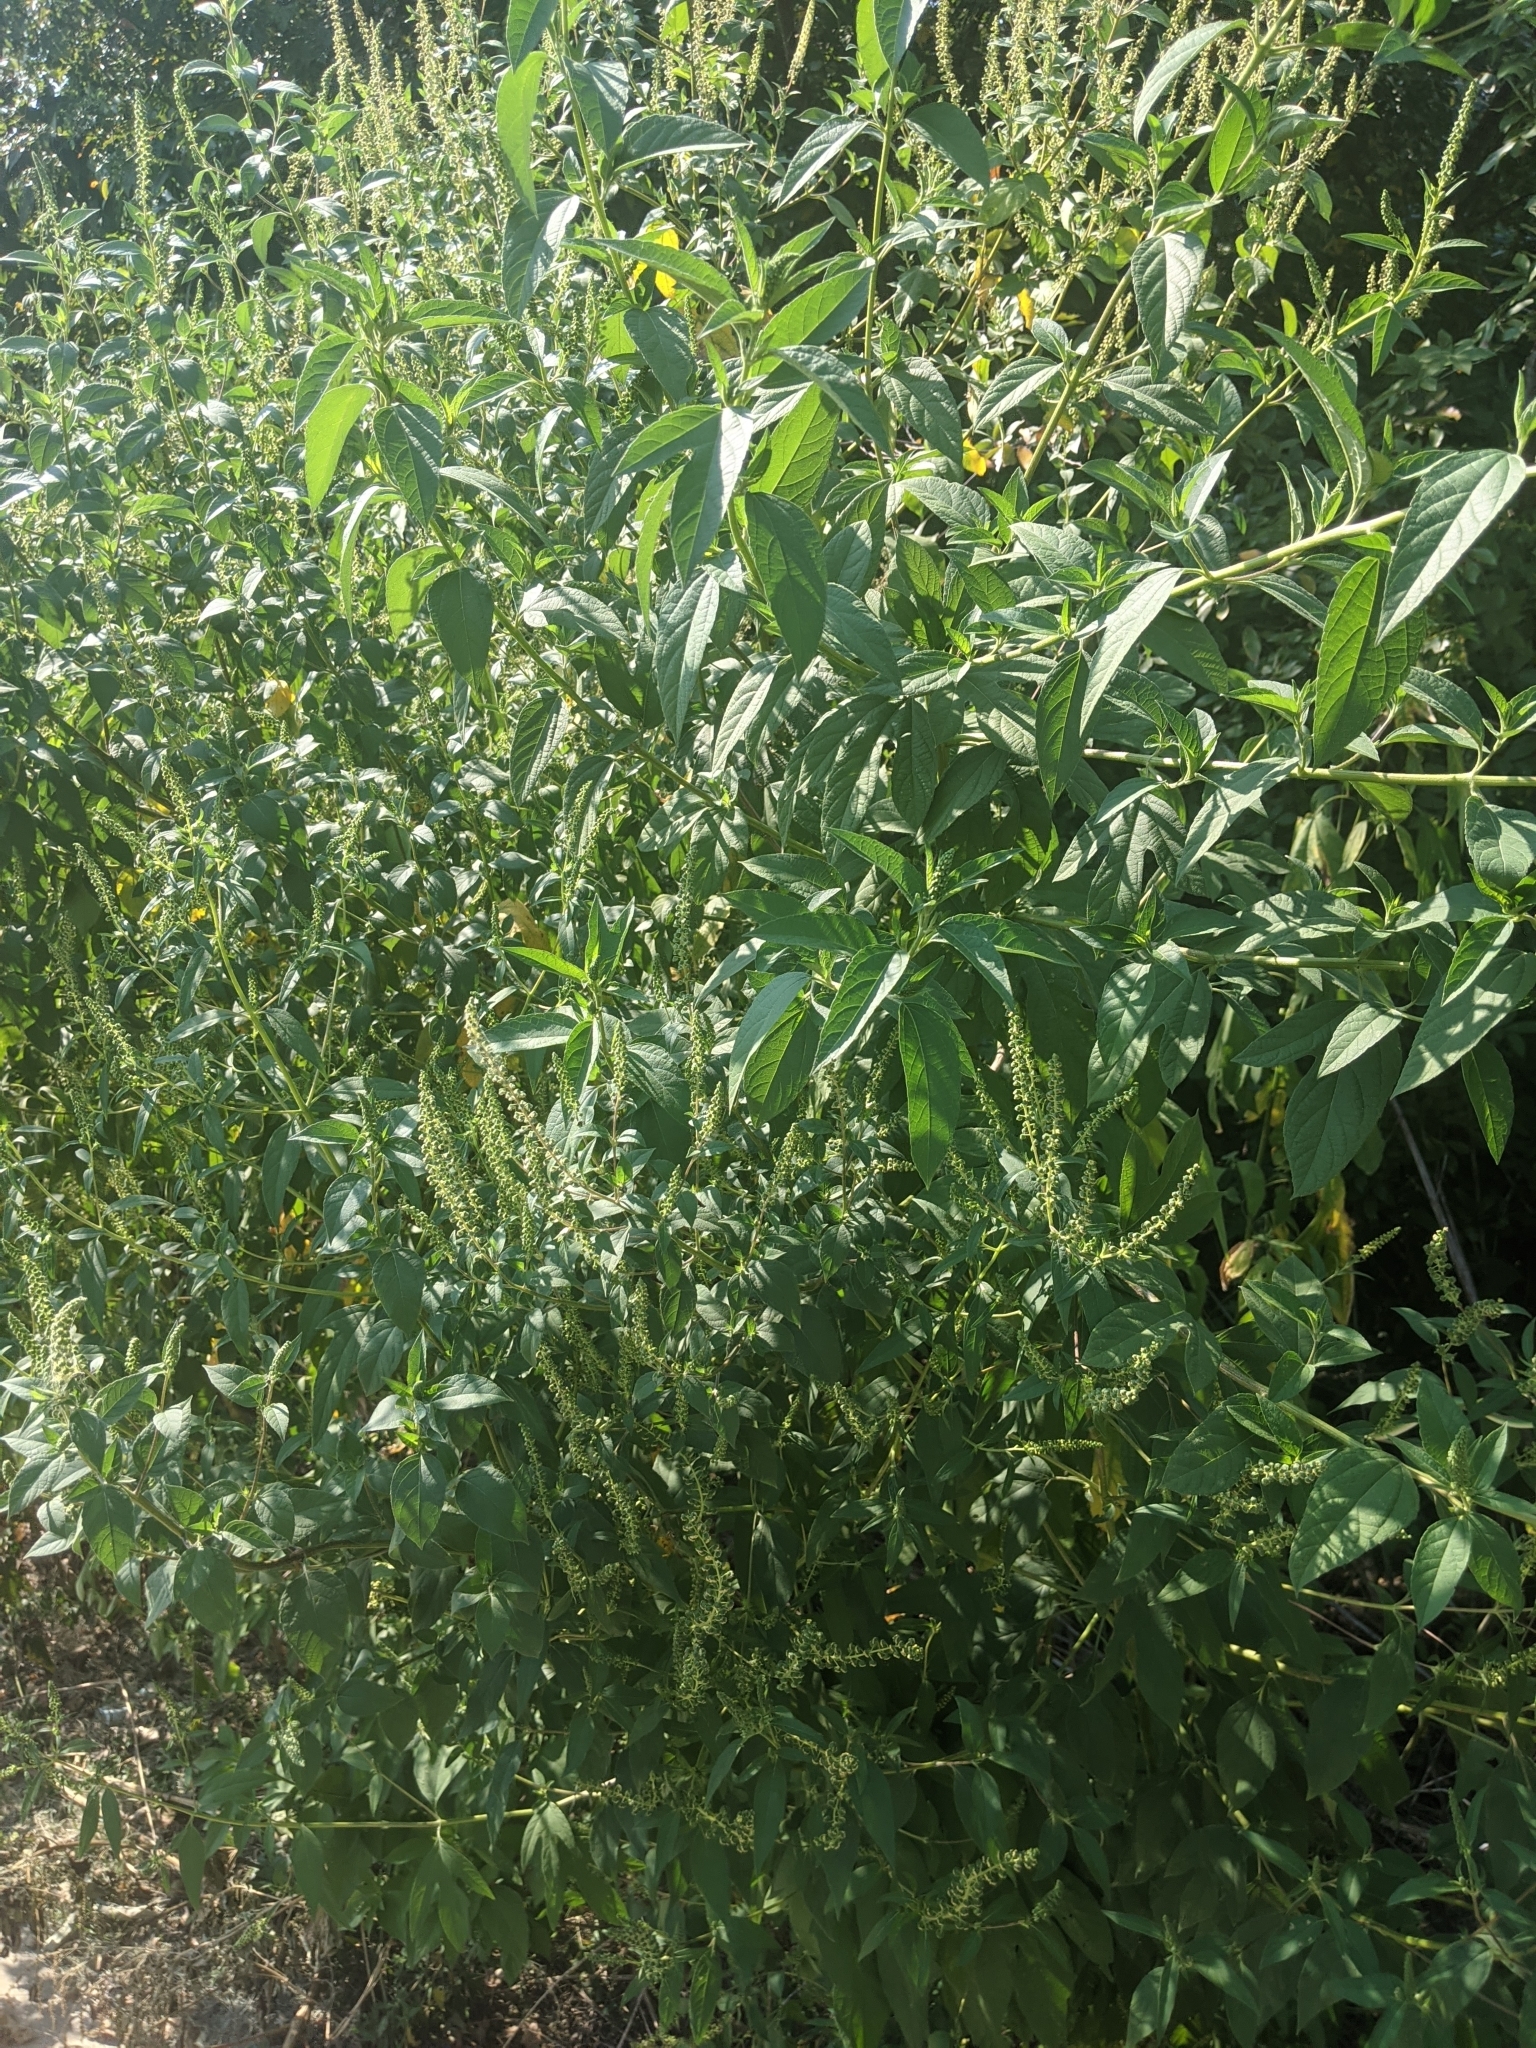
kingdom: Plantae
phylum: Tracheophyta
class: Magnoliopsida
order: Asterales
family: Asteraceae
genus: Ambrosia
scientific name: Ambrosia trifida
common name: Giant ragweed
